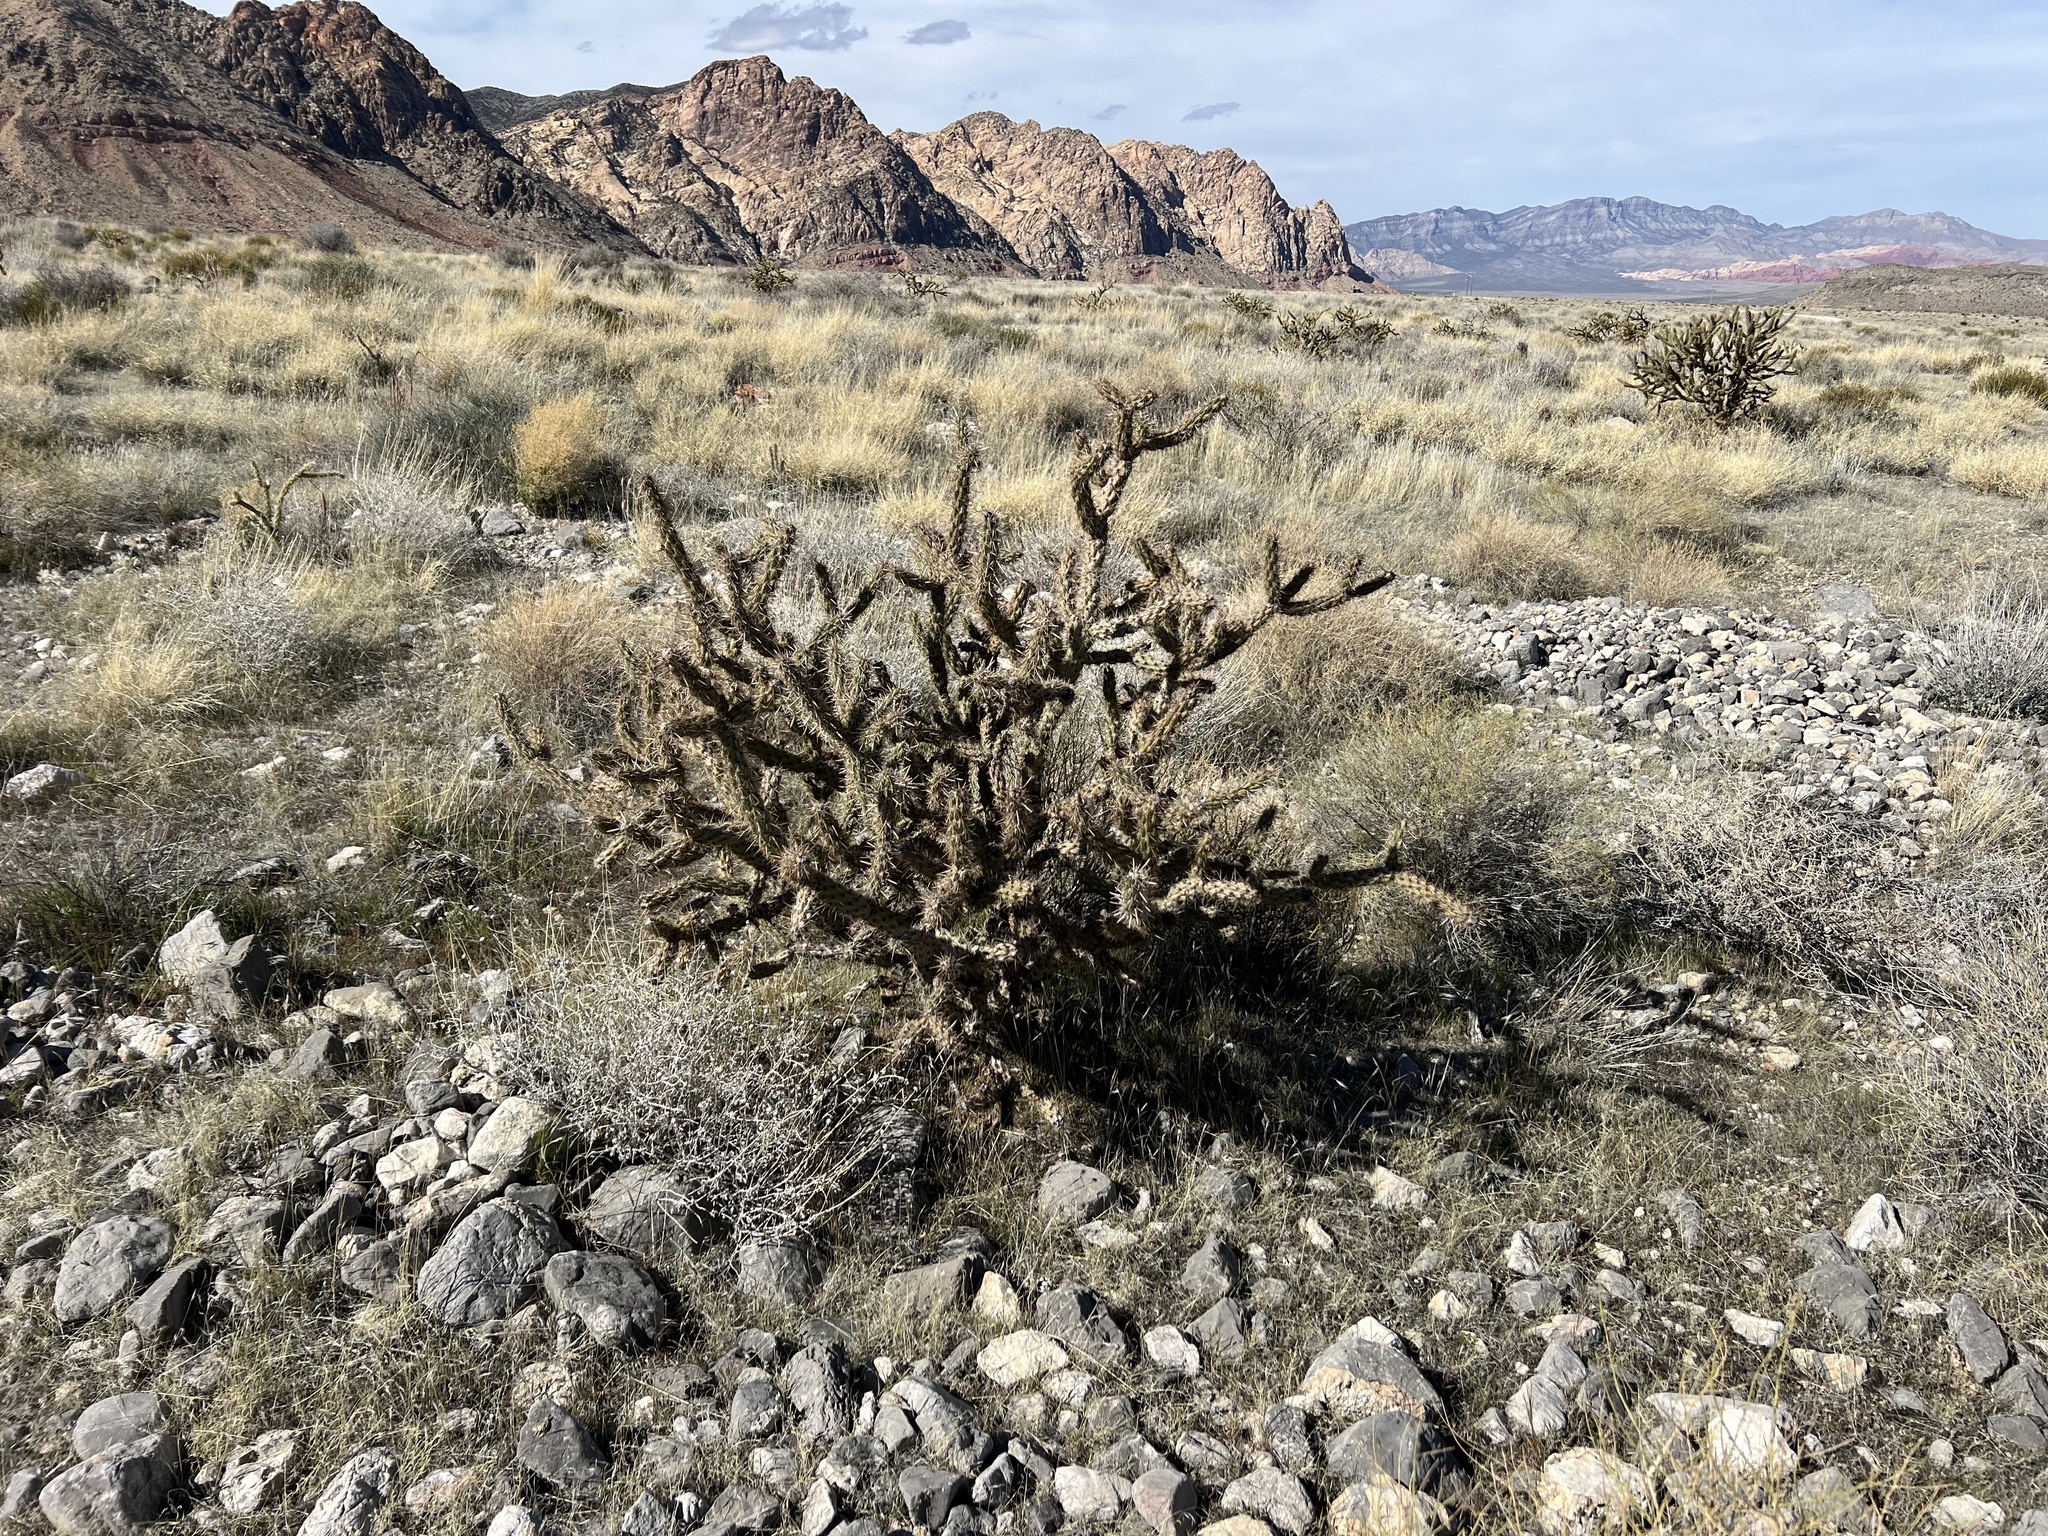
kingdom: Plantae
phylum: Tracheophyta
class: Magnoliopsida
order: Caryophyllales
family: Cactaceae
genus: Cylindropuntia
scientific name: Cylindropuntia acanthocarpa
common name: Buckhorn cholla
